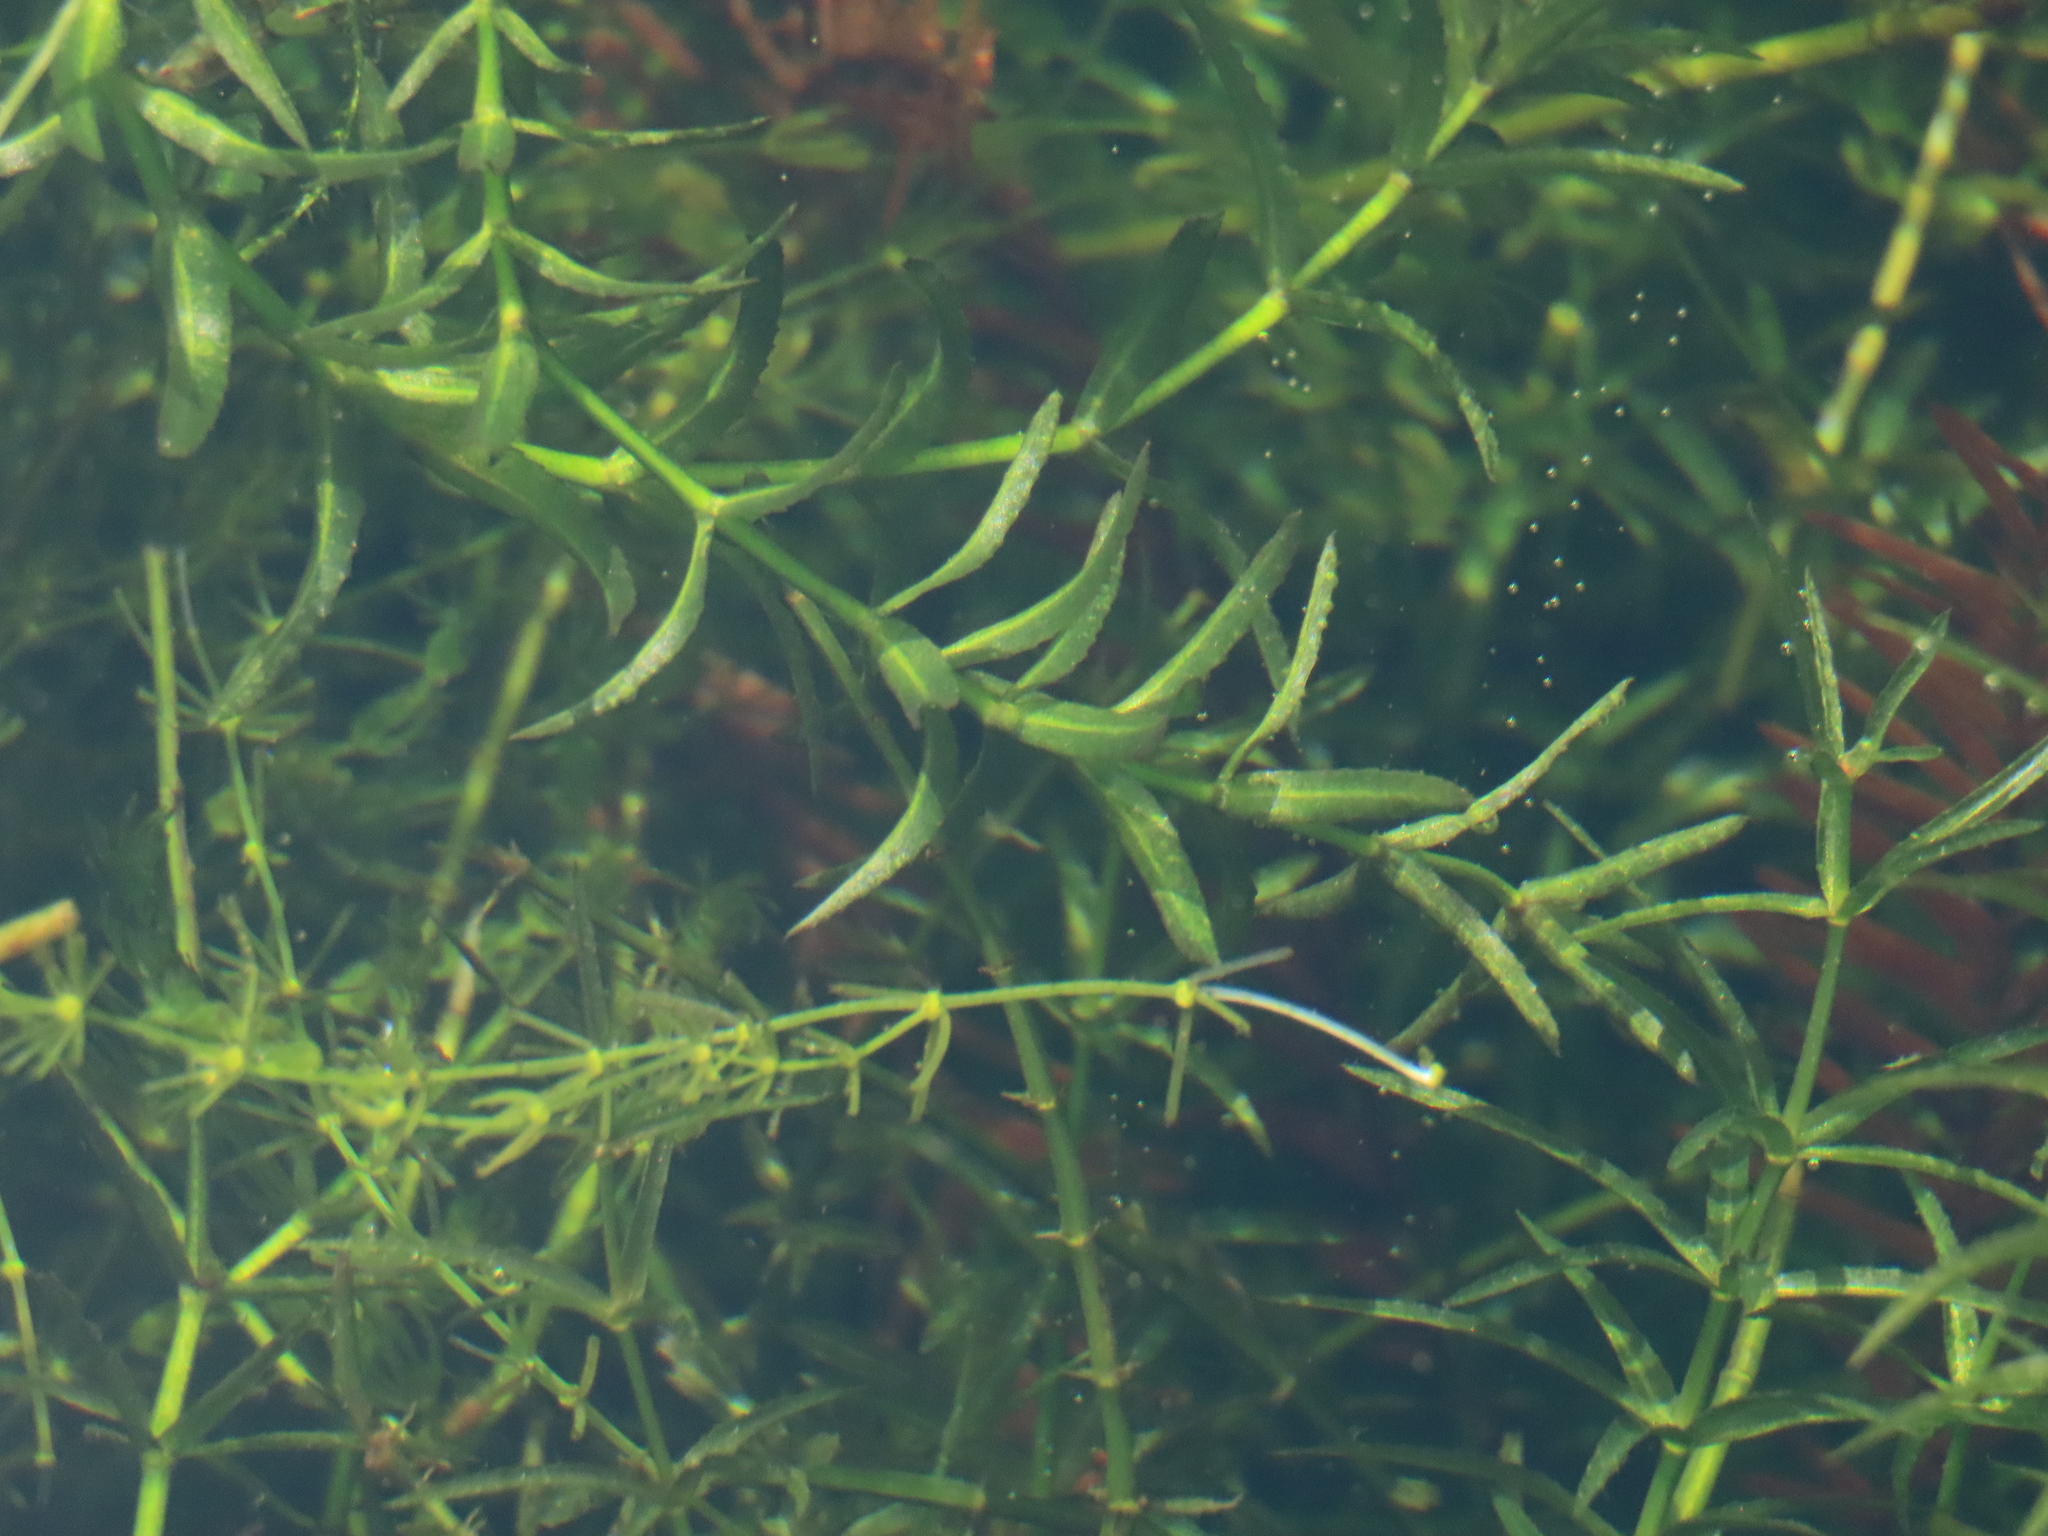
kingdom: Plantae
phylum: Tracheophyta
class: Liliopsida
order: Alismatales
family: Hydrocharitaceae
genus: Hydrilla
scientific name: Hydrilla verticillata
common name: Florida-elodea
